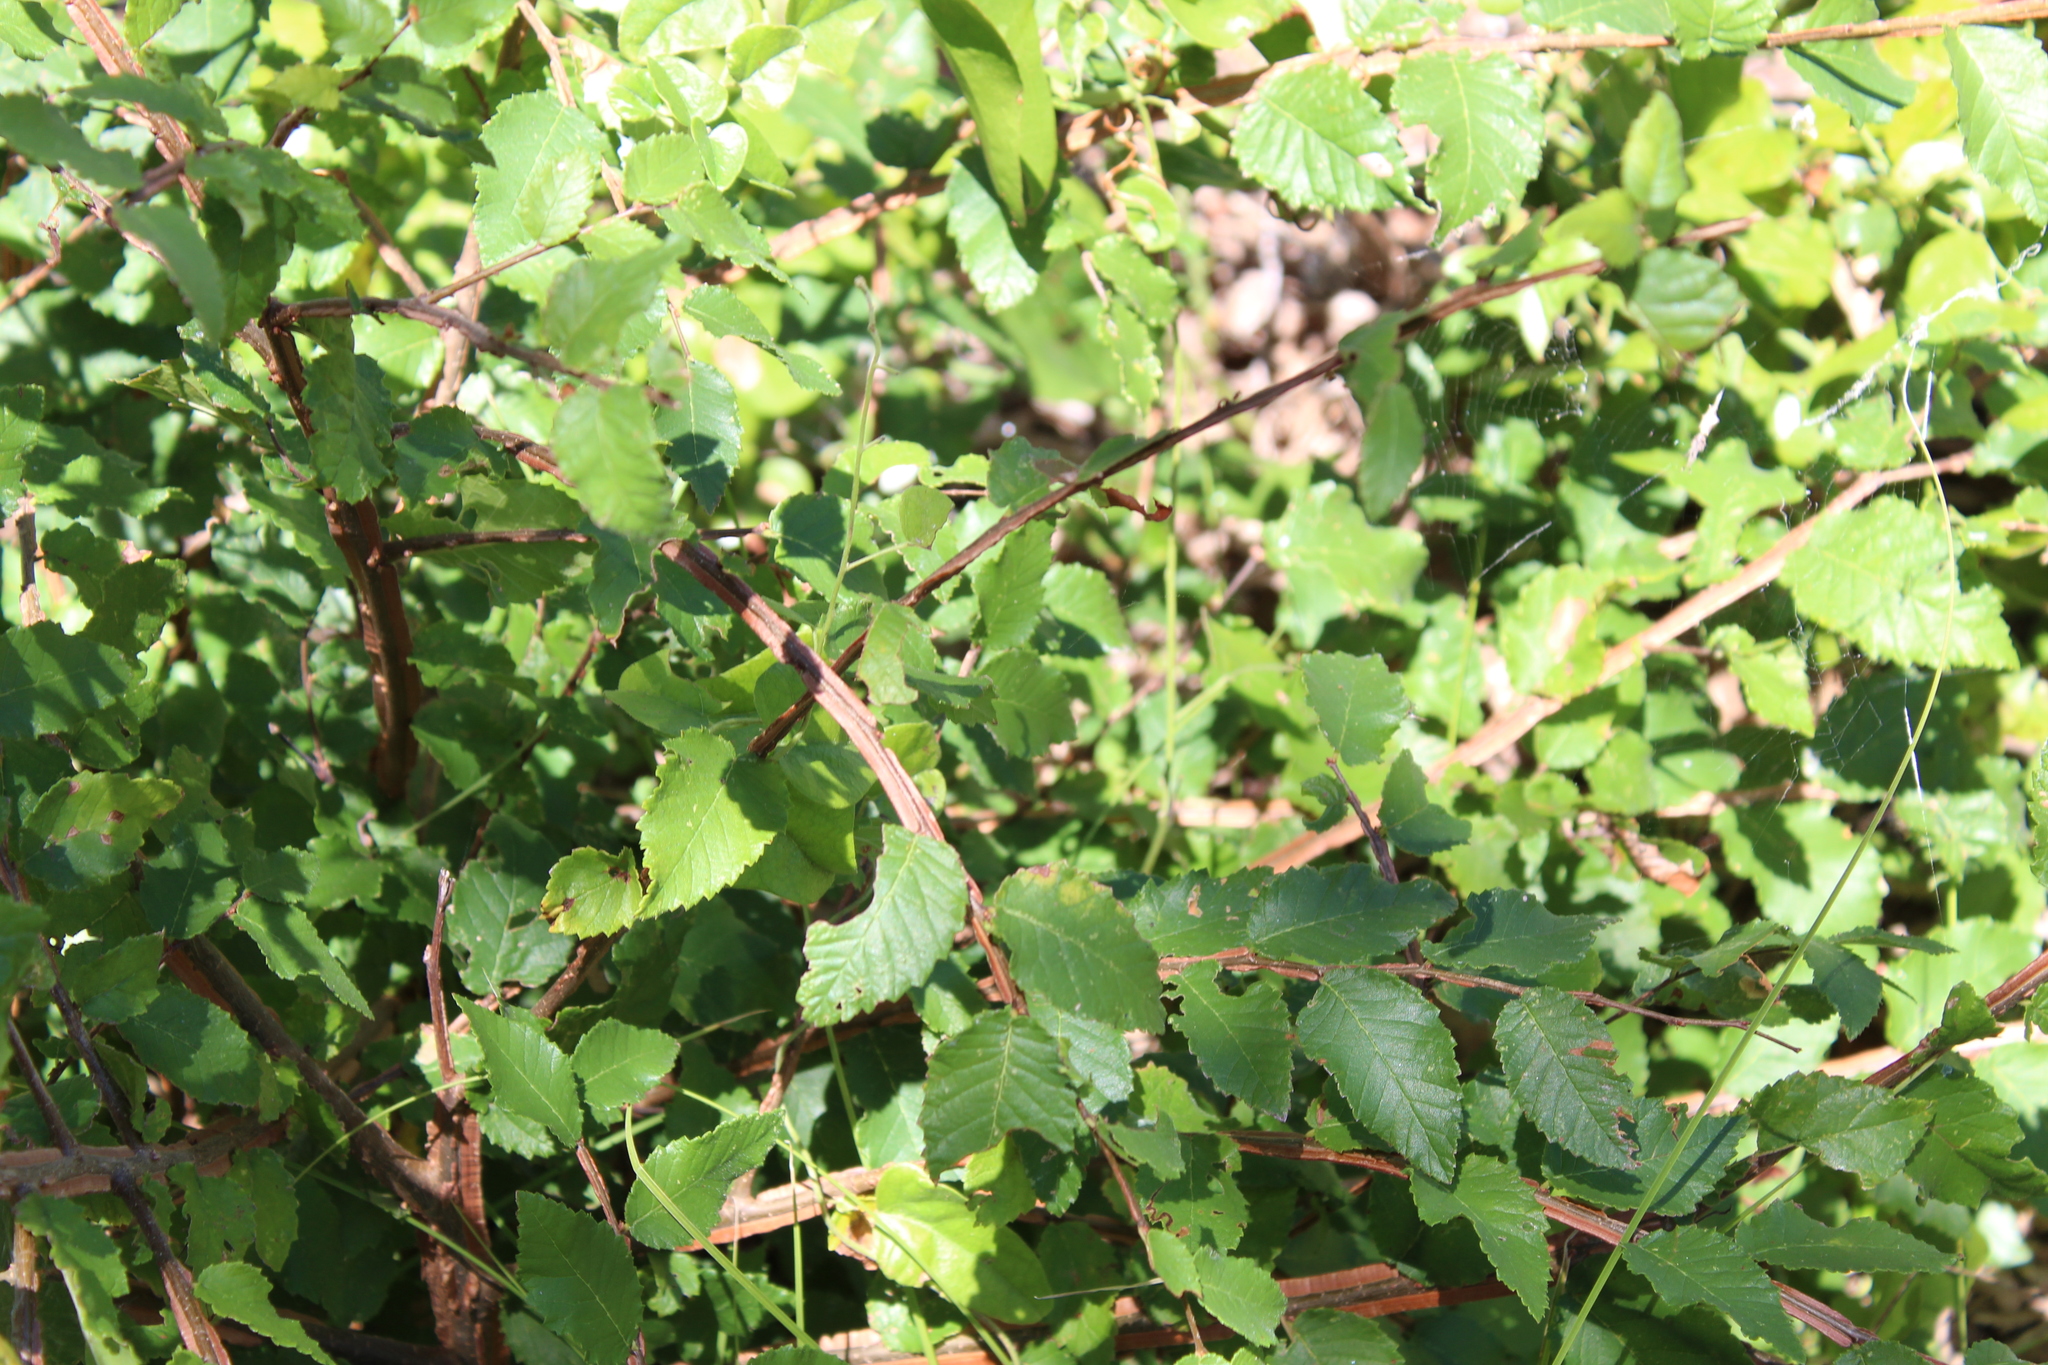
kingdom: Plantae
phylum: Tracheophyta
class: Magnoliopsida
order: Rosales
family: Ulmaceae
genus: Ulmus
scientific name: Ulmus crassifolia
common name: Basket elm
